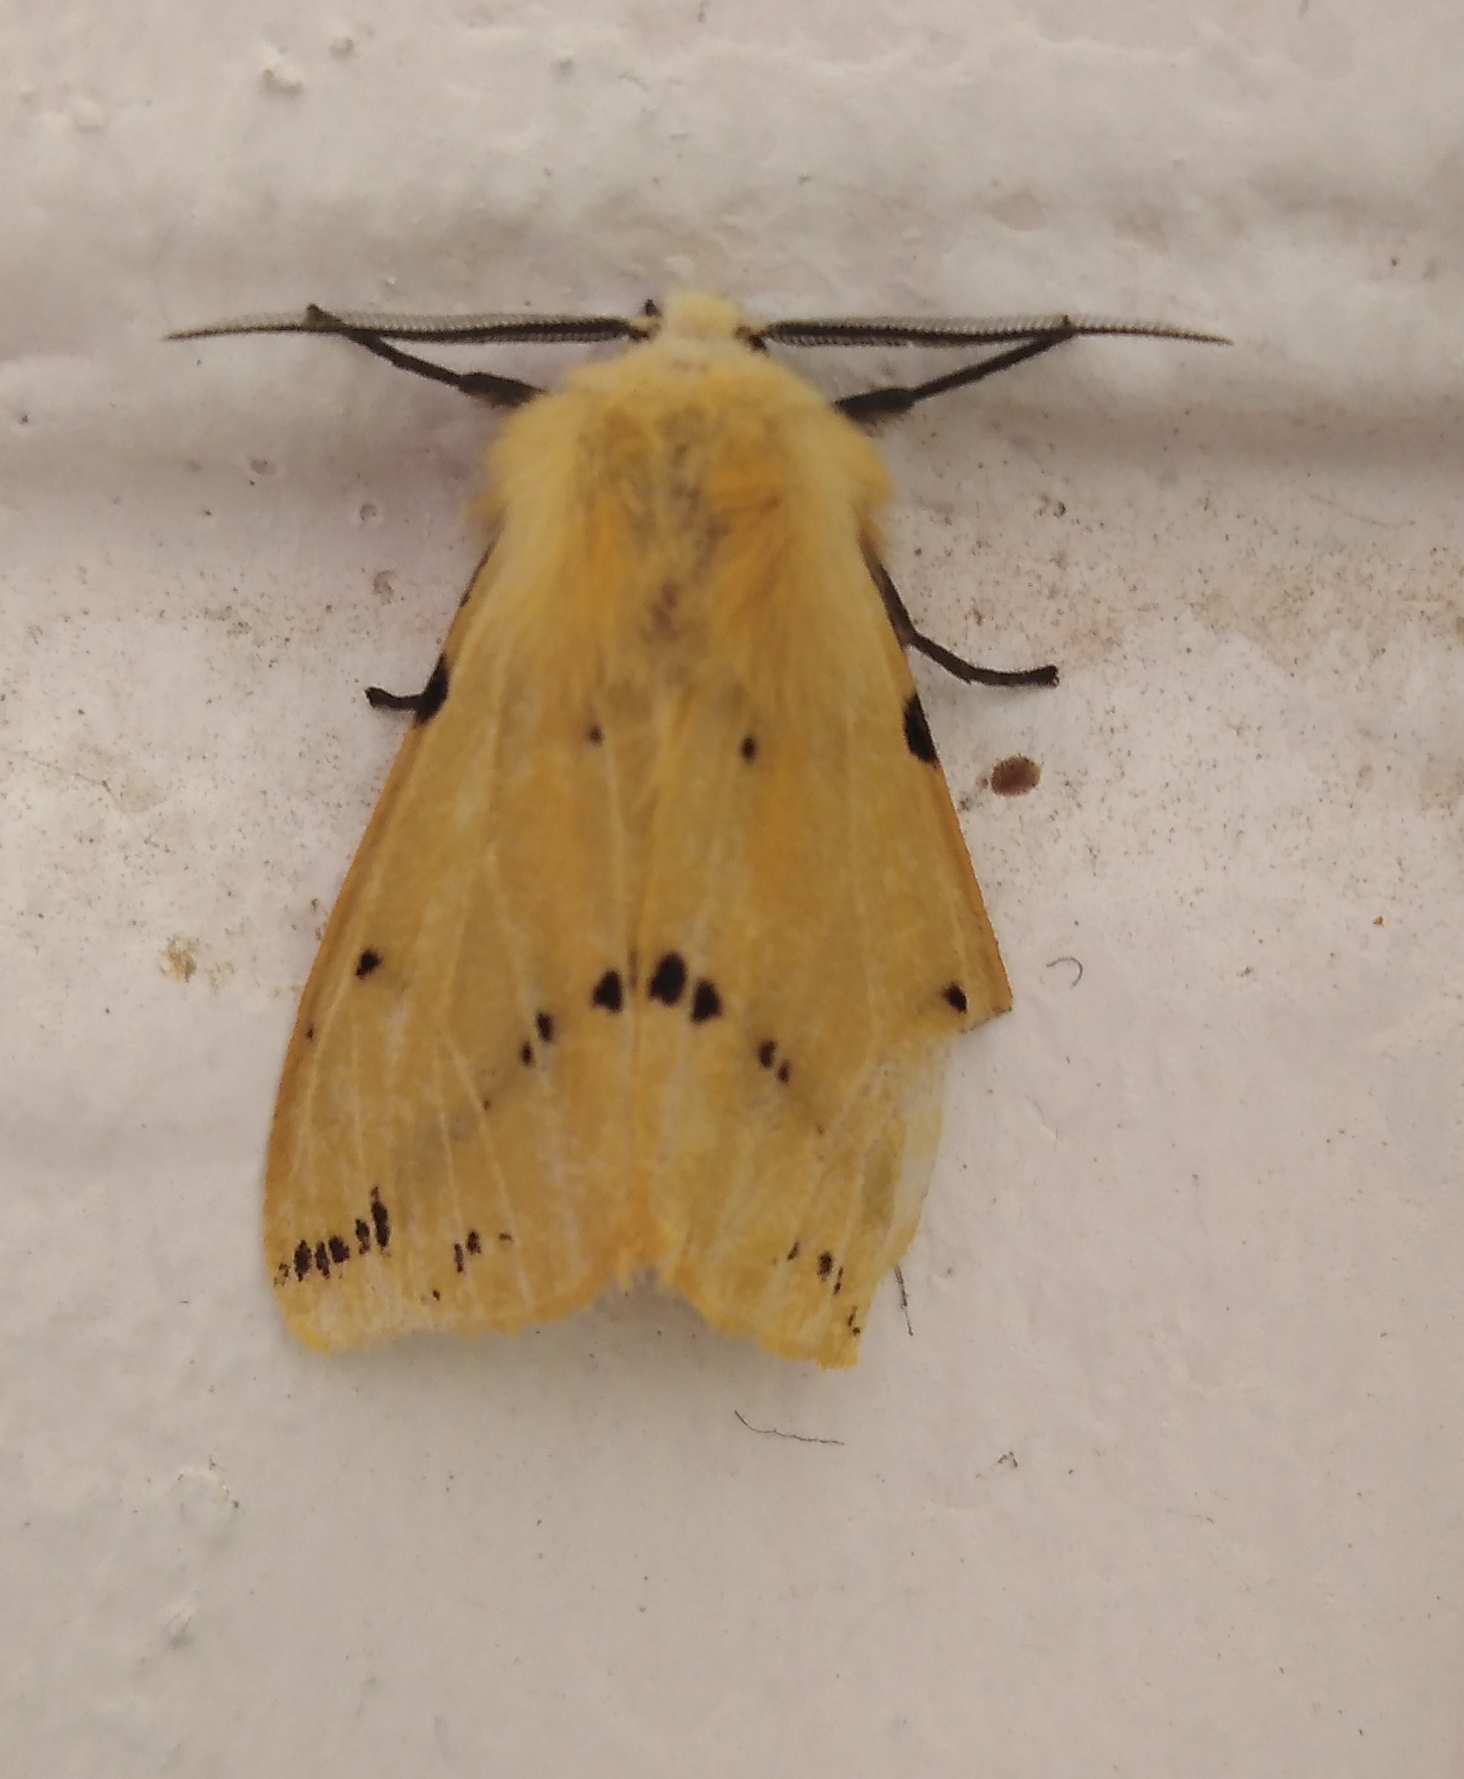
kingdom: Animalia
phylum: Arthropoda
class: Insecta
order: Lepidoptera
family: Erebidae
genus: Spilarctia
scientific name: Spilarctia lutea
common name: Buff ermine
